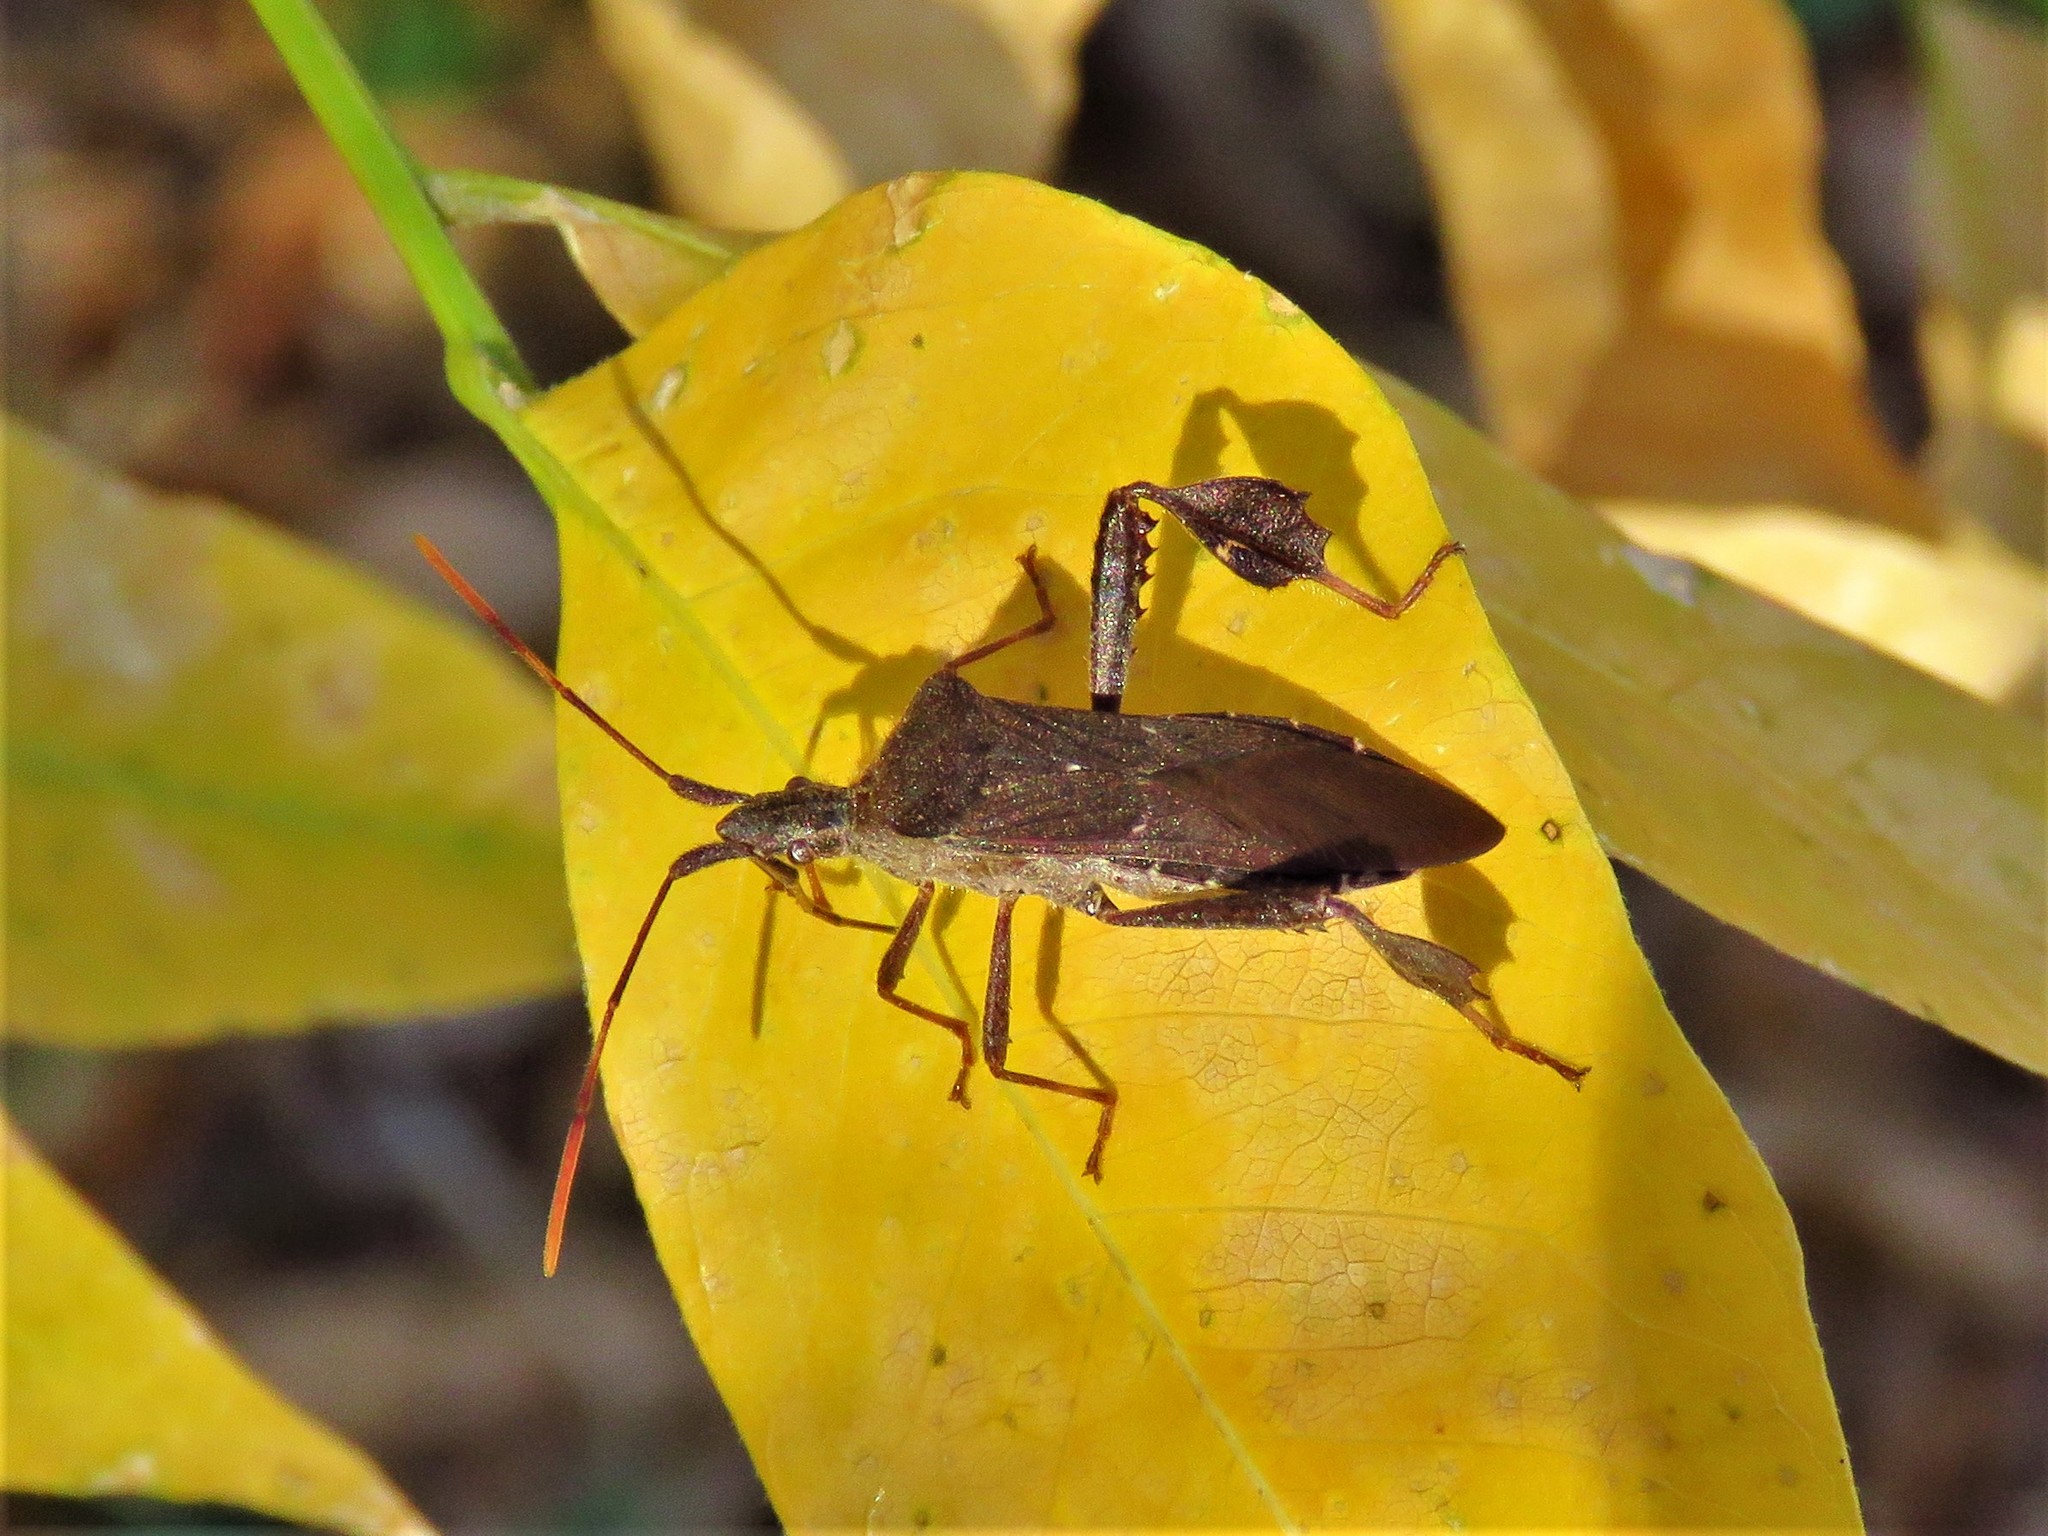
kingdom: Animalia
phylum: Arthropoda
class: Insecta
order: Hemiptera
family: Coreidae
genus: Leptoglossus
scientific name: Leptoglossus oppositus
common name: Northern leaf-footed bug
